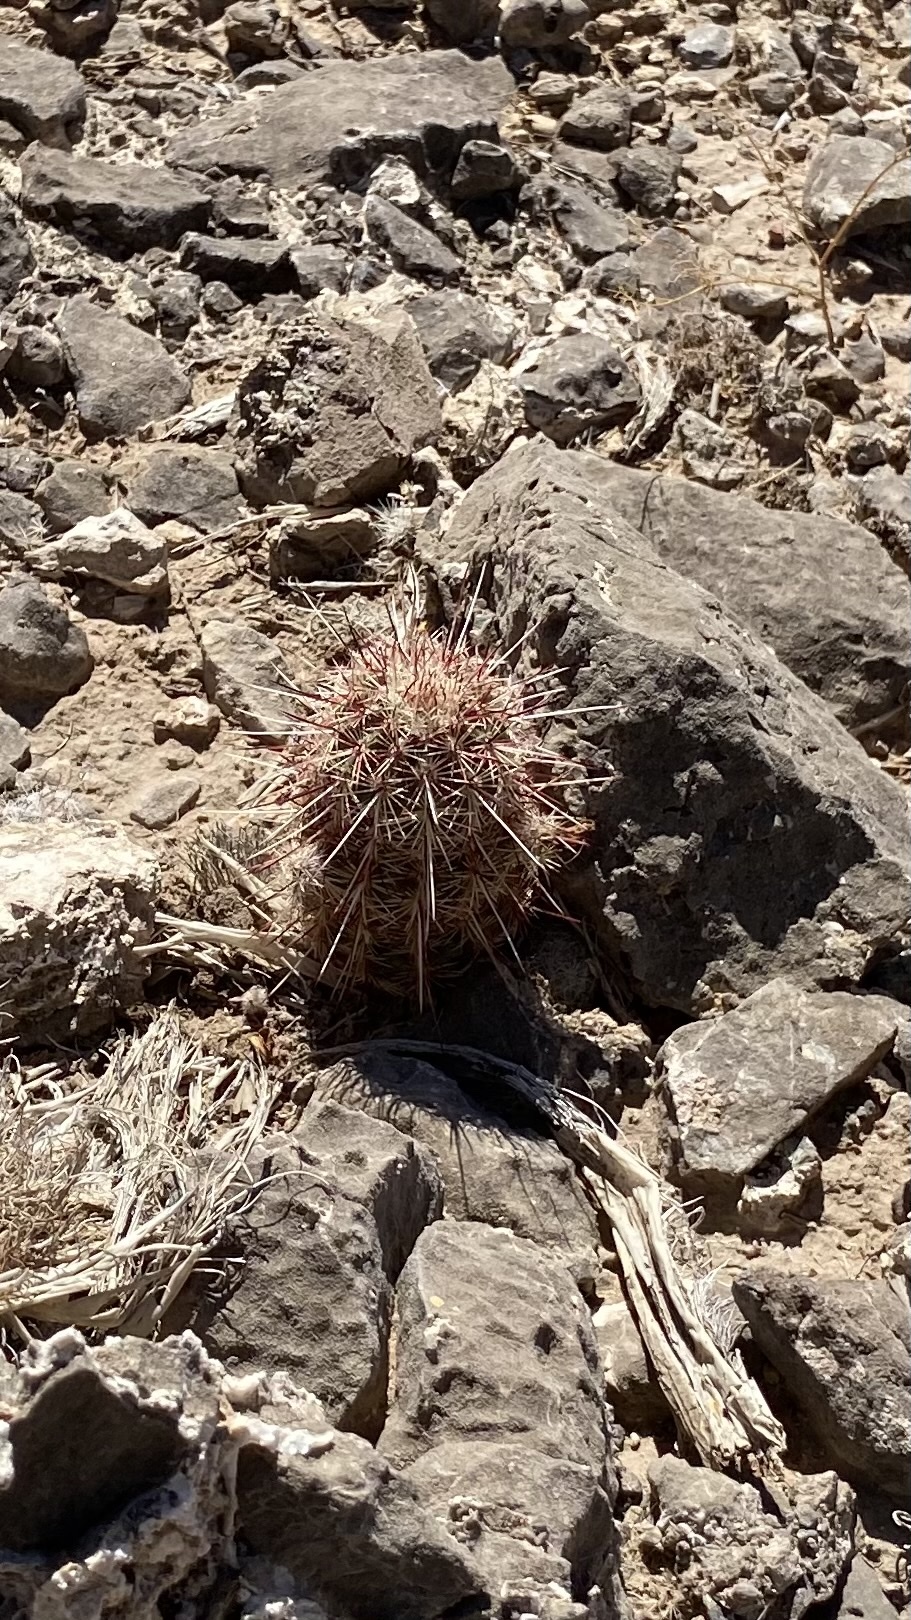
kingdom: Plantae
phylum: Tracheophyta
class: Magnoliopsida
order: Caryophyllales
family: Cactaceae
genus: Echinocereus
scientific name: Echinocereus viridiflorus
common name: Nylon hedgehog cactus
